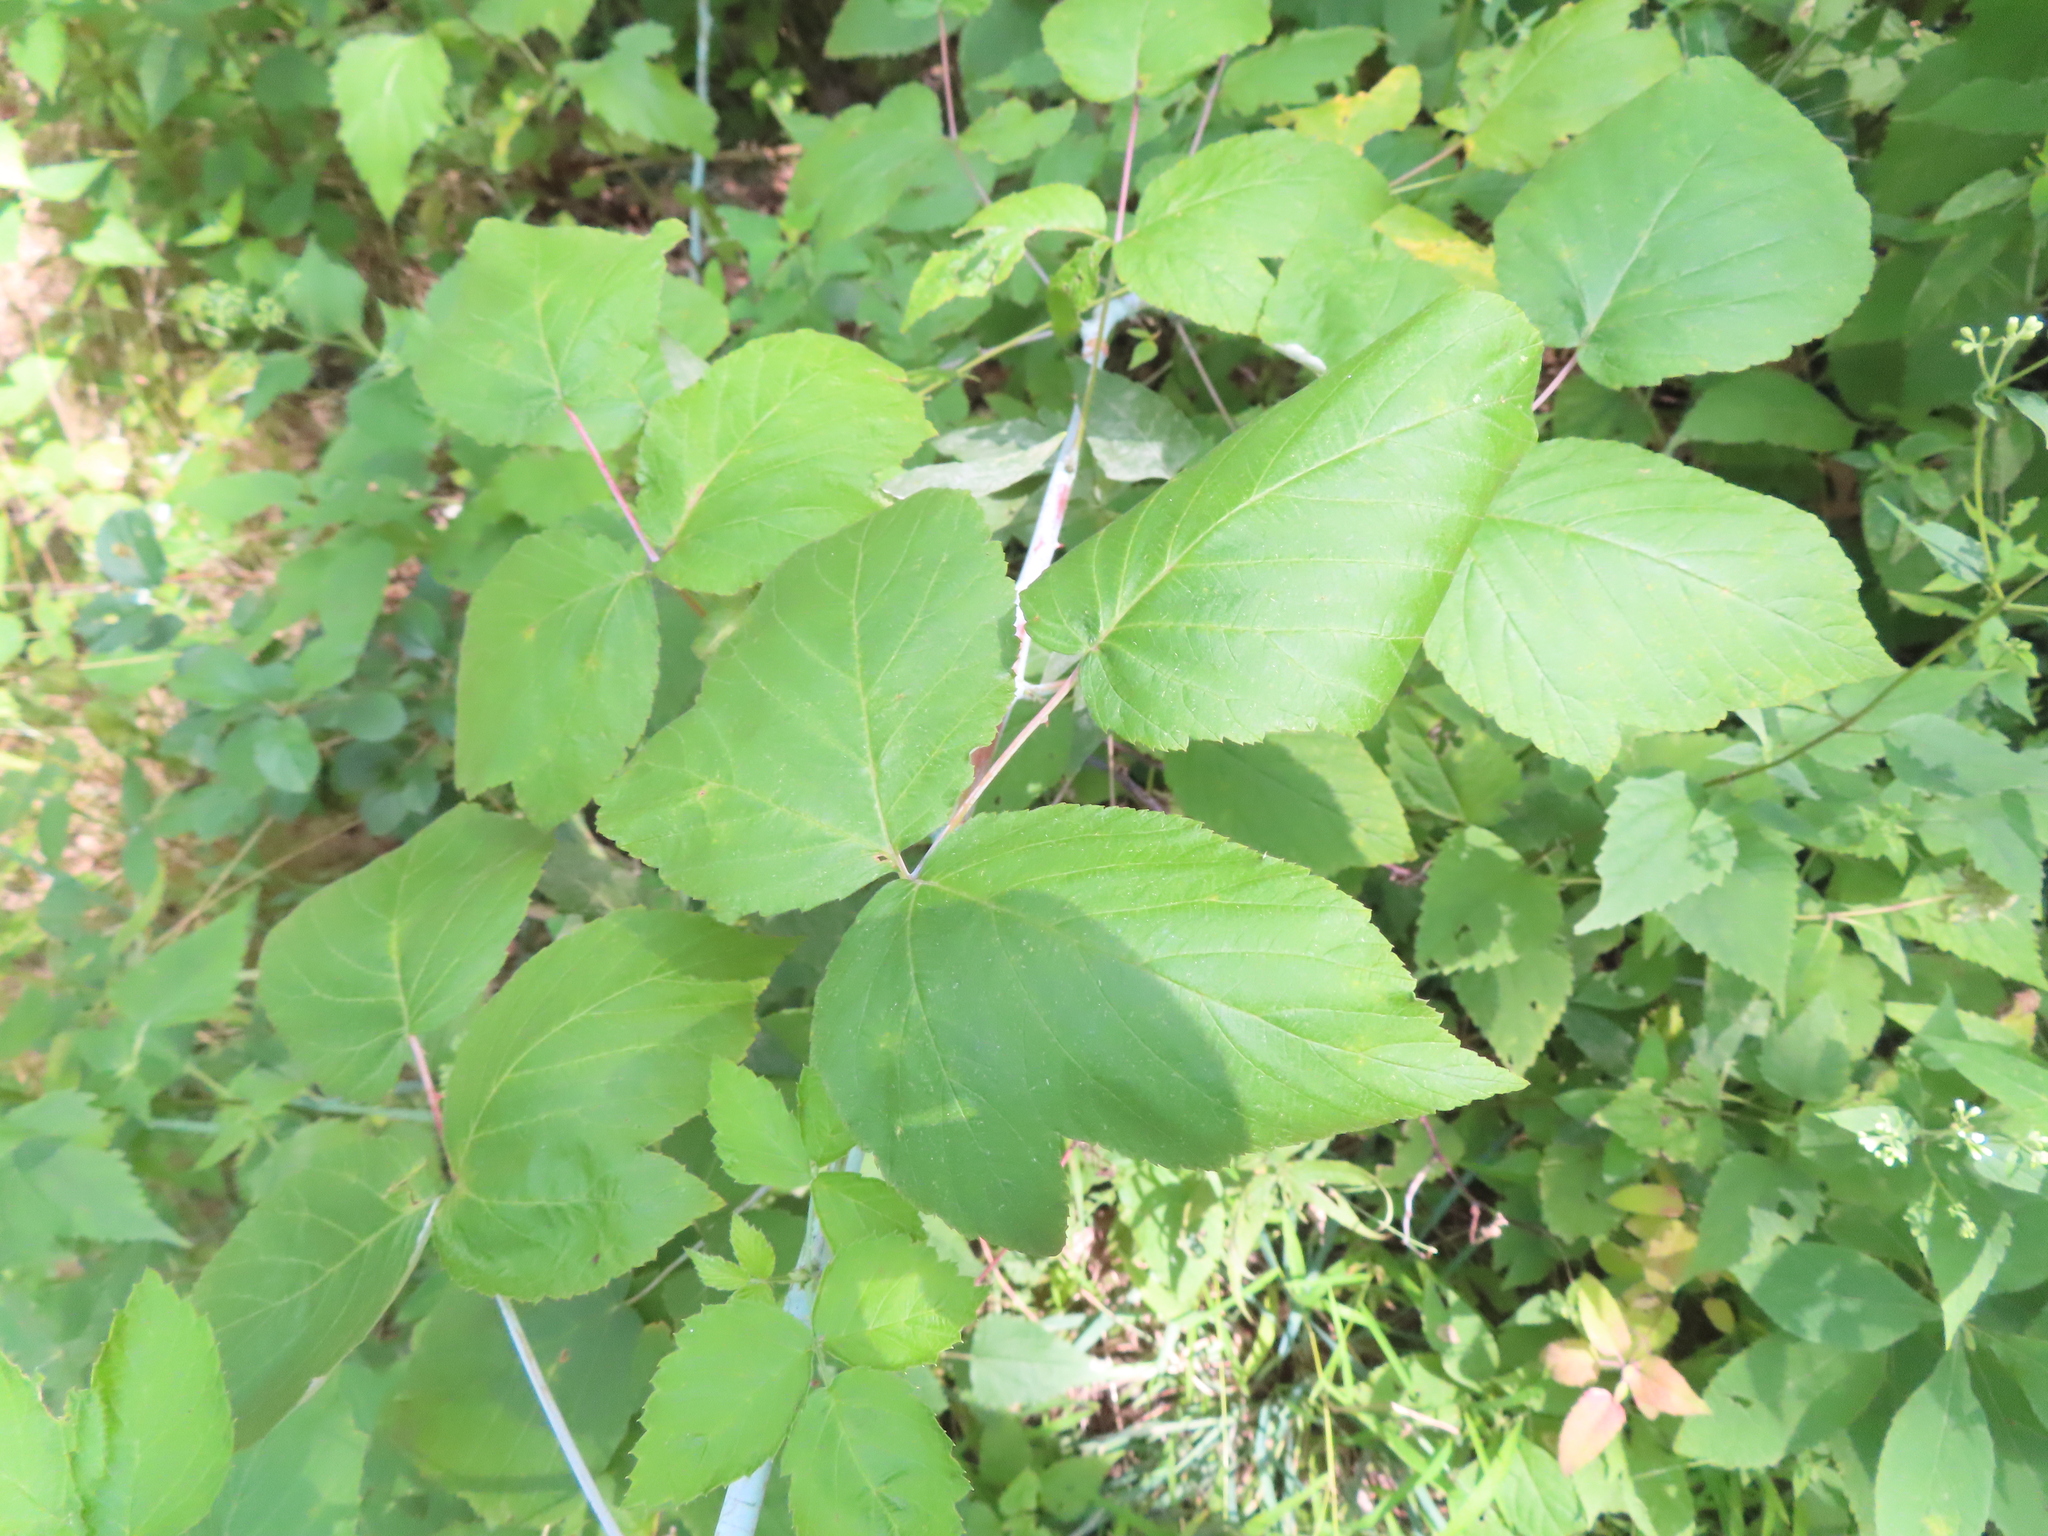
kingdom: Plantae
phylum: Tracheophyta
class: Magnoliopsida
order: Rosales
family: Rosaceae
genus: Rubus
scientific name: Rubus occidentalis
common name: Black raspberry
